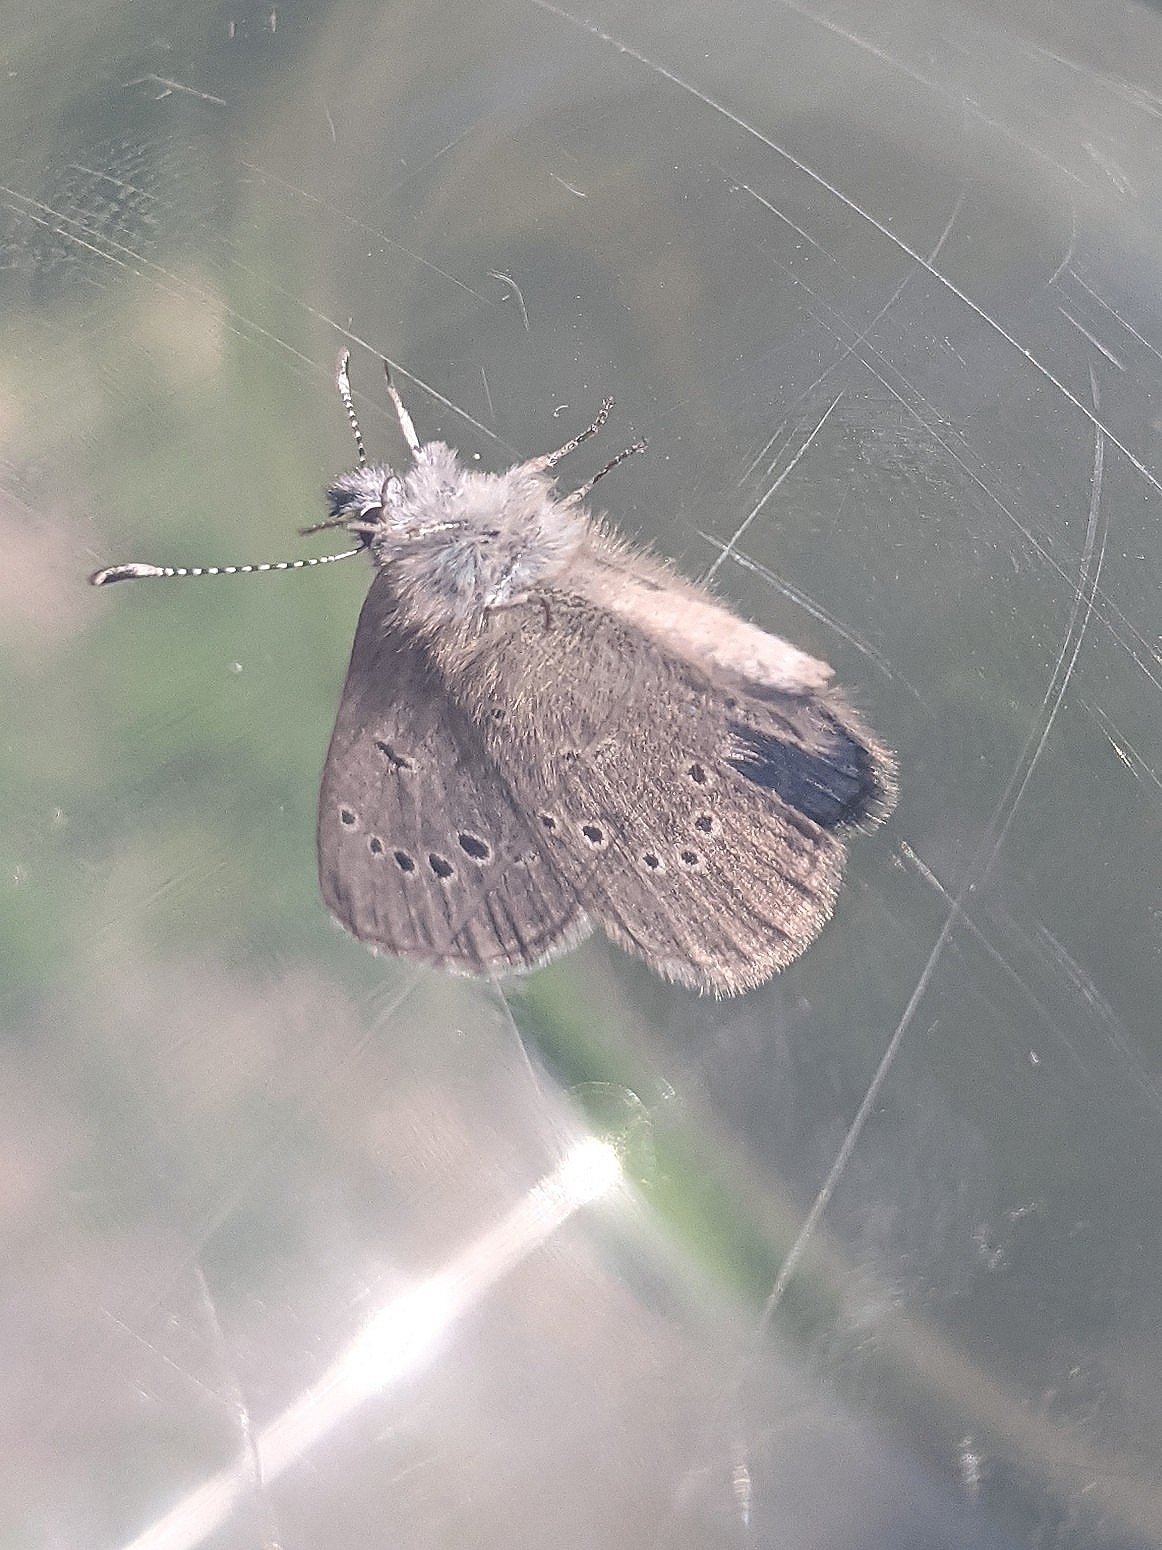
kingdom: Animalia
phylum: Arthropoda
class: Insecta
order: Lepidoptera
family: Lycaenidae
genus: Glaucopsyche
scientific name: Glaucopsyche lygdamus
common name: Silvery blue
